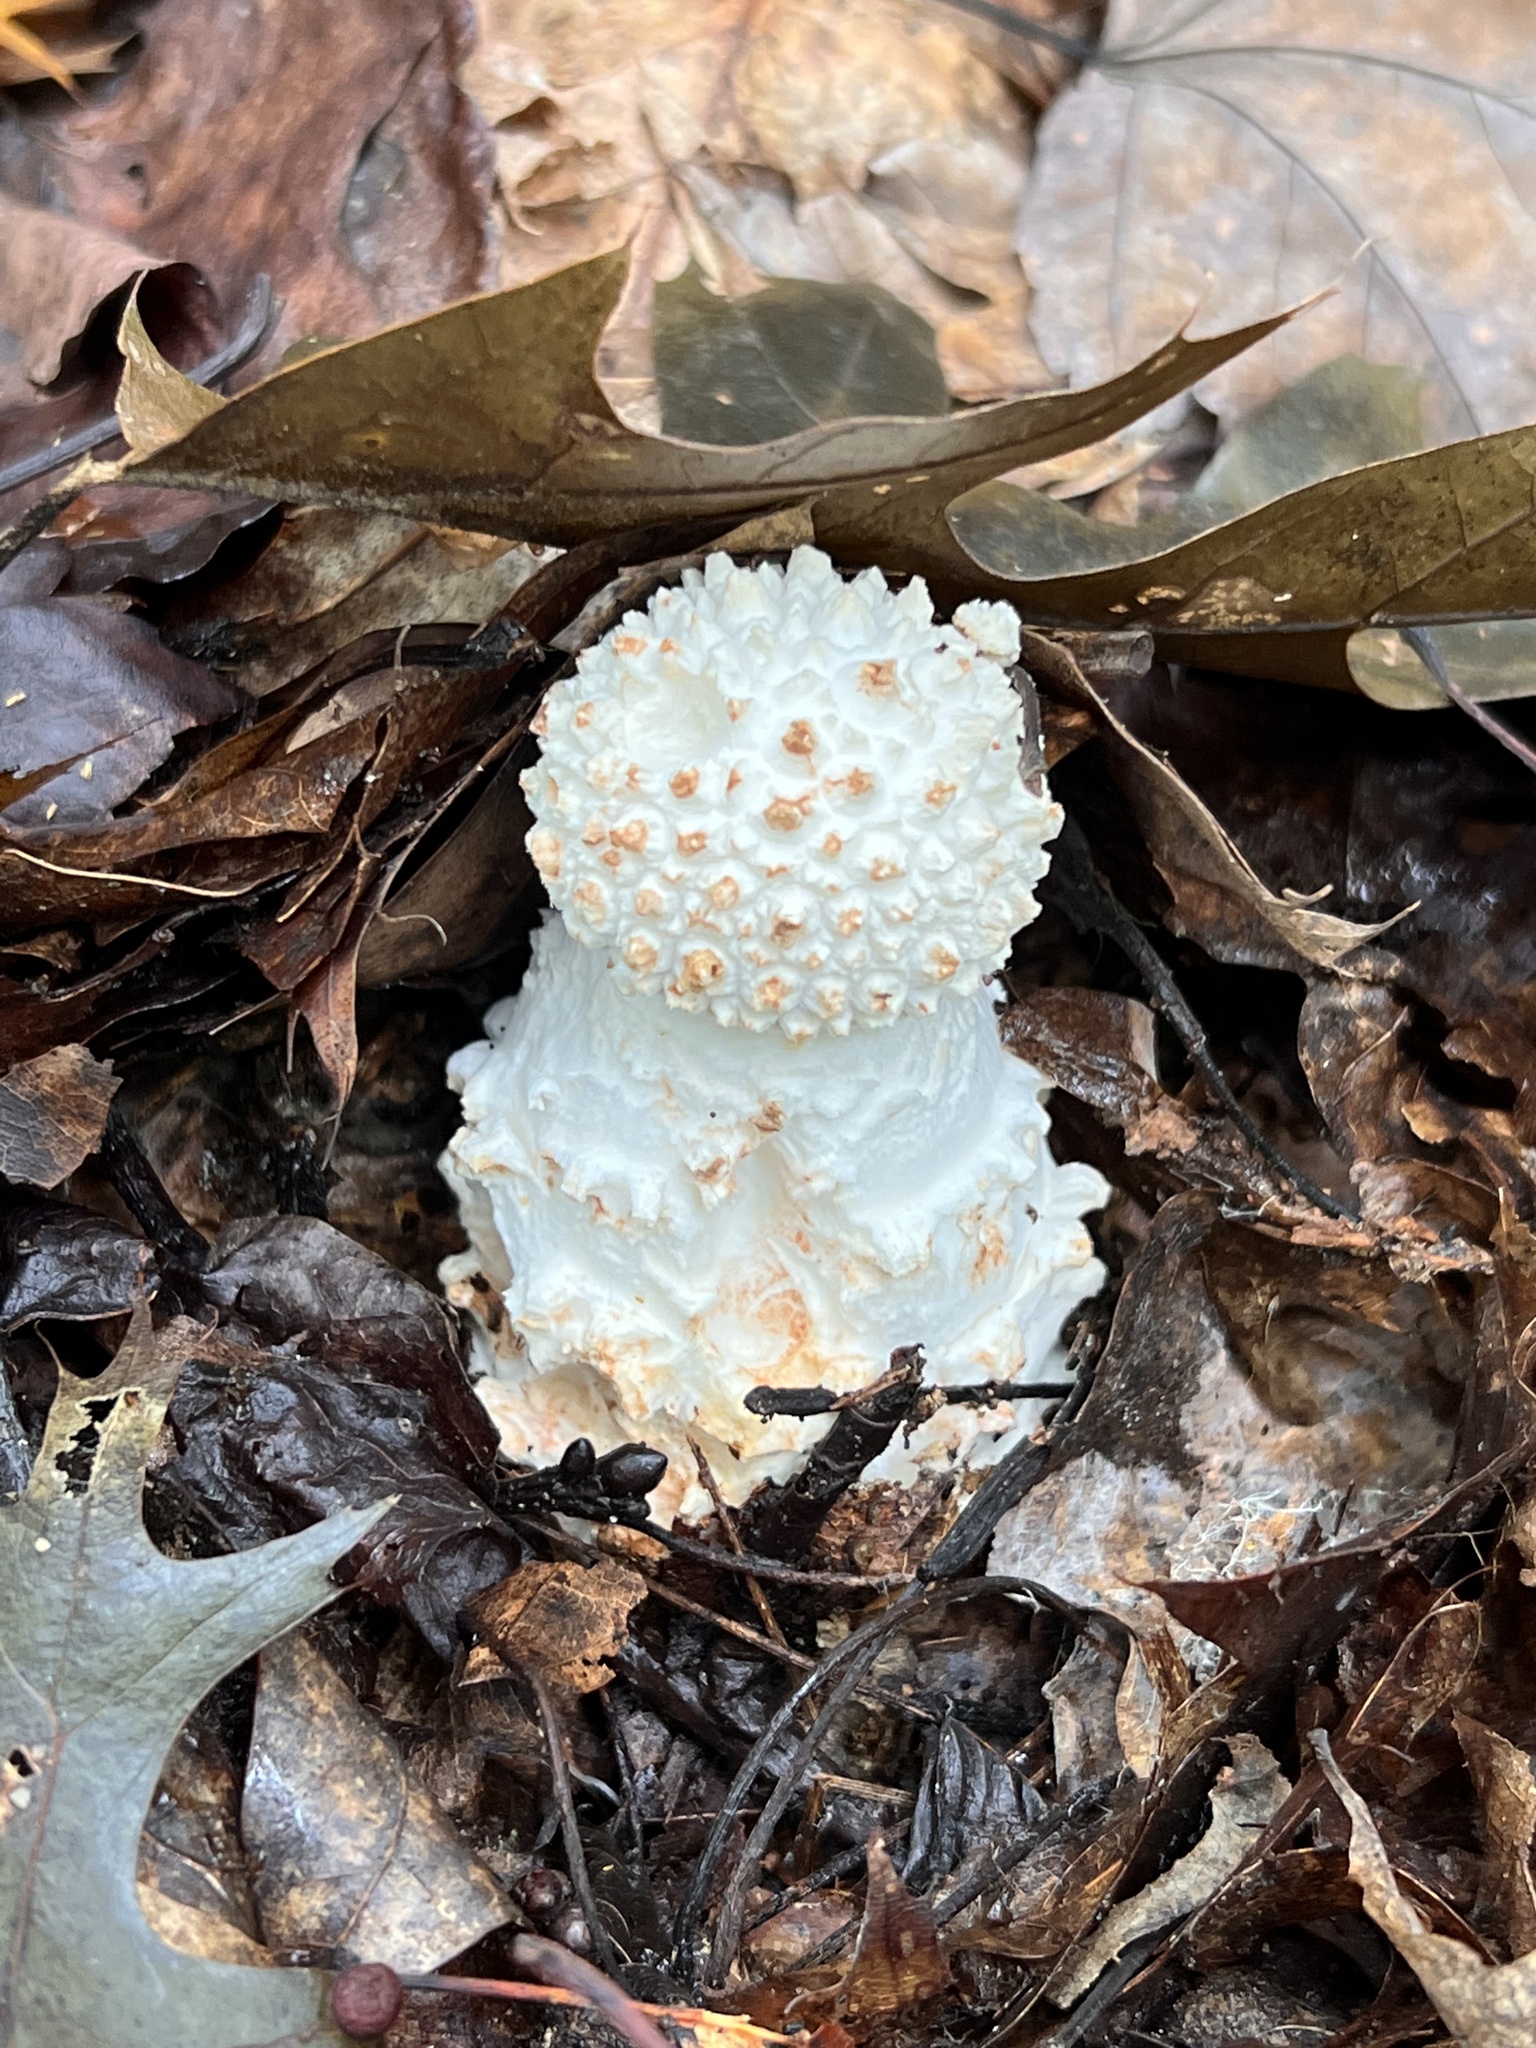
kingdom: Fungi
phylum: Basidiomycota
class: Agaricomycetes
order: Agaricales
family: Amanitaceae
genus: Amanita
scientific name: Amanita cokeri
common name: Coker's amanita
